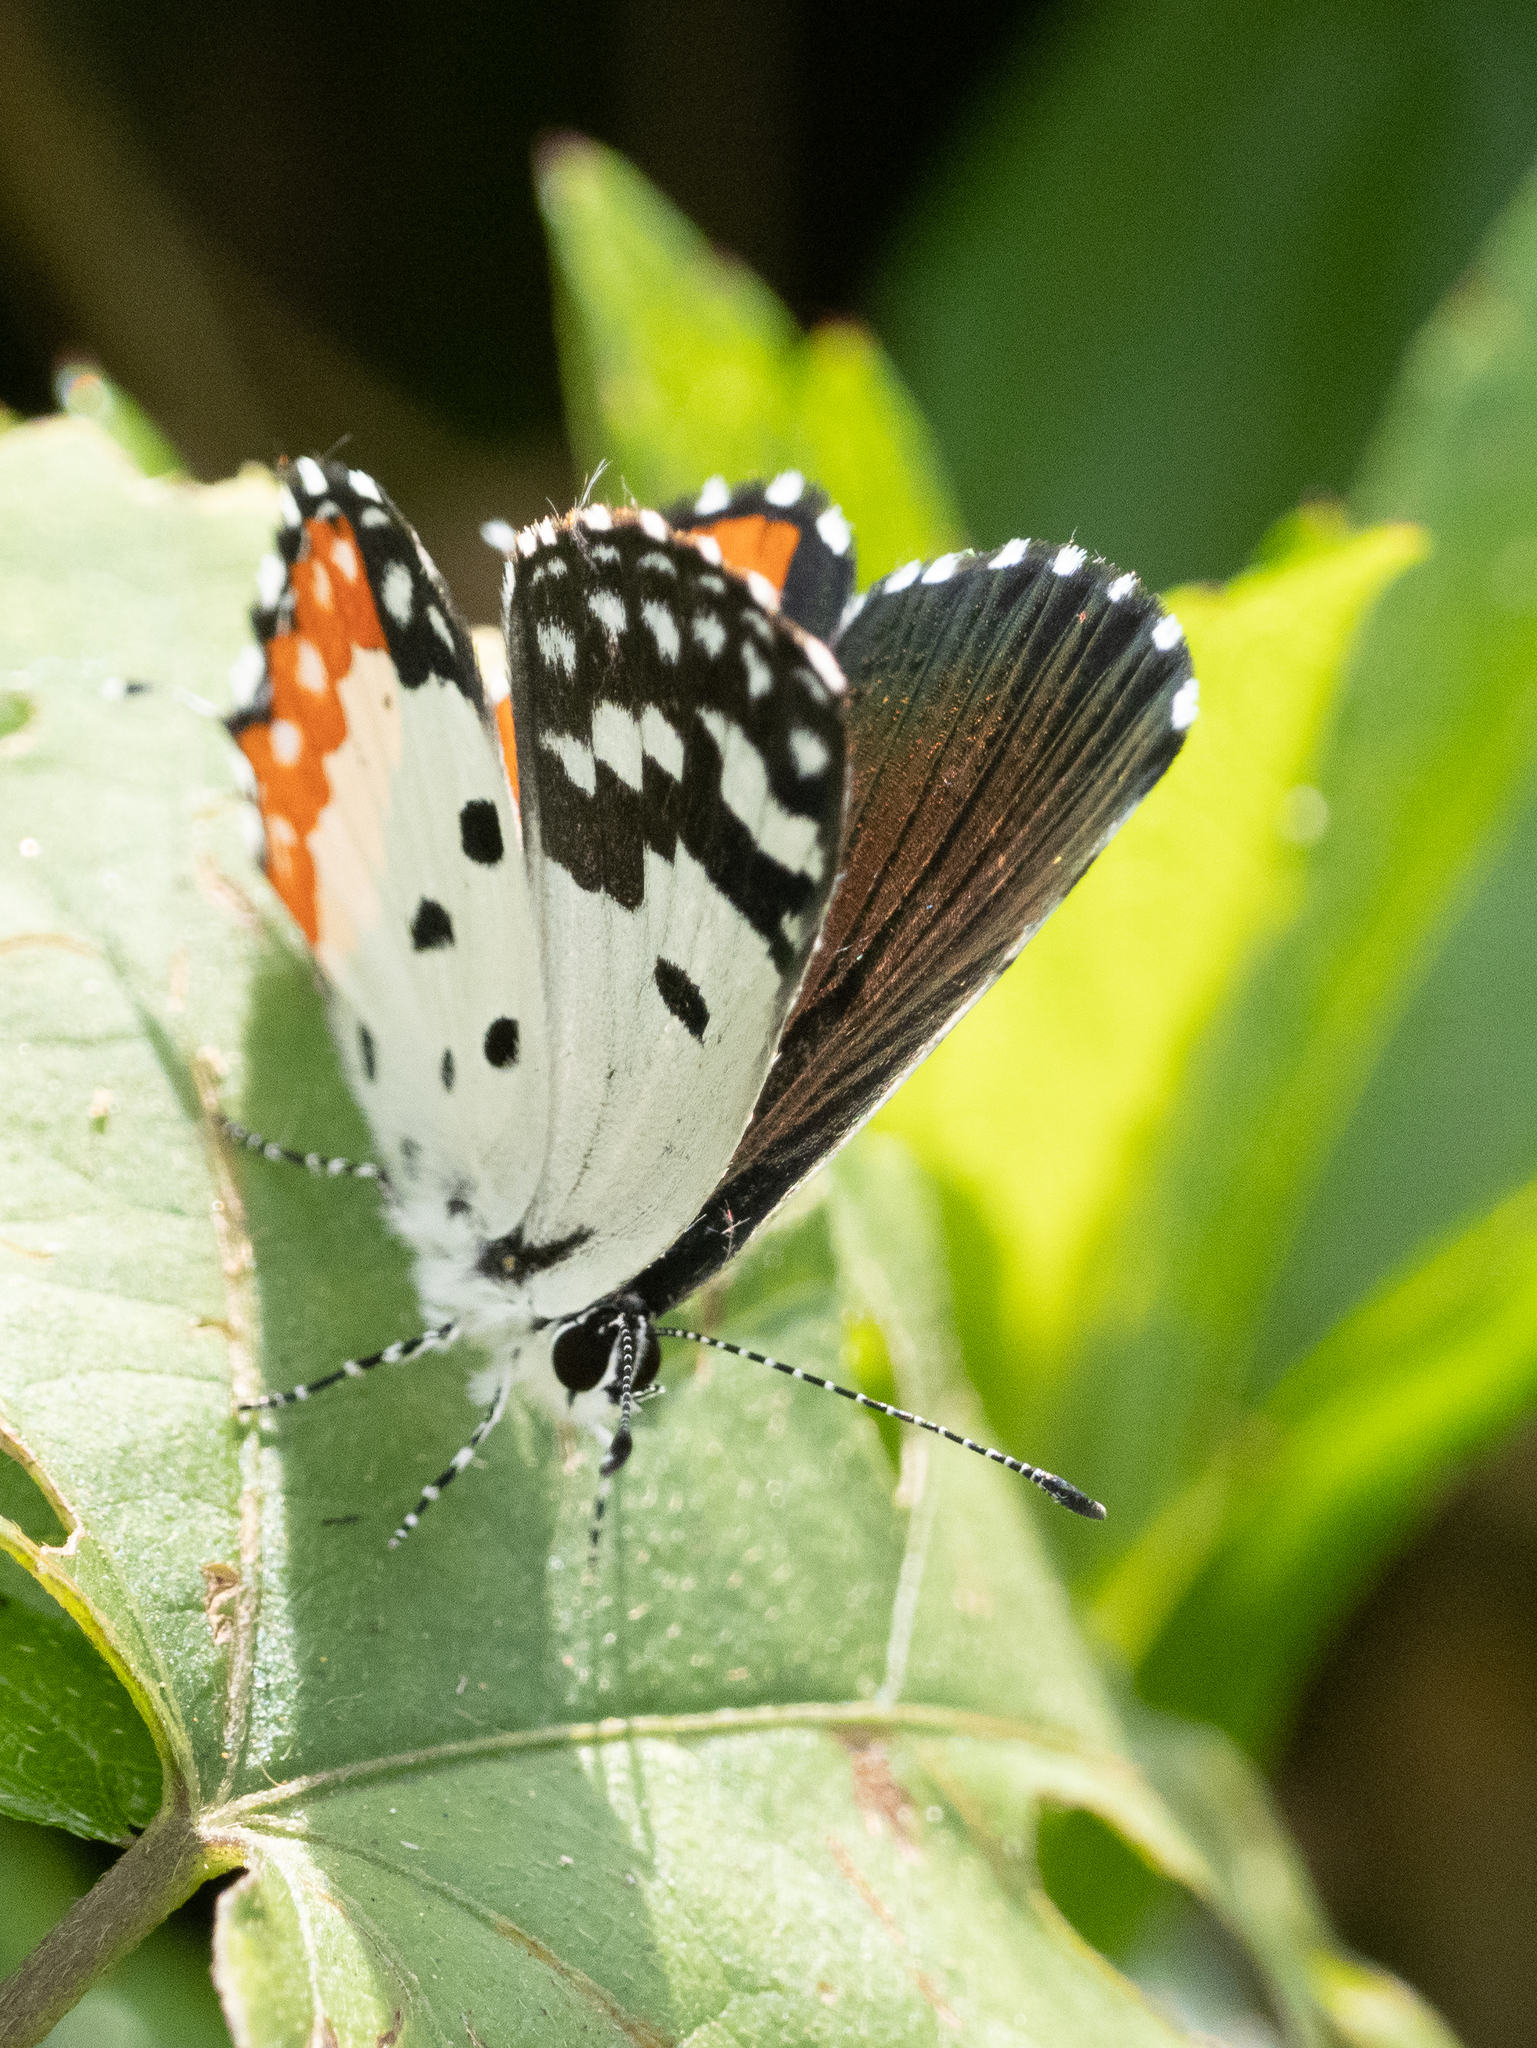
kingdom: Animalia
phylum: Arthropoda
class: Insecta
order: Lepidoptera
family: Lycaenidae
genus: Talicada
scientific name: Talicada nyseus
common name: Red pierrot
